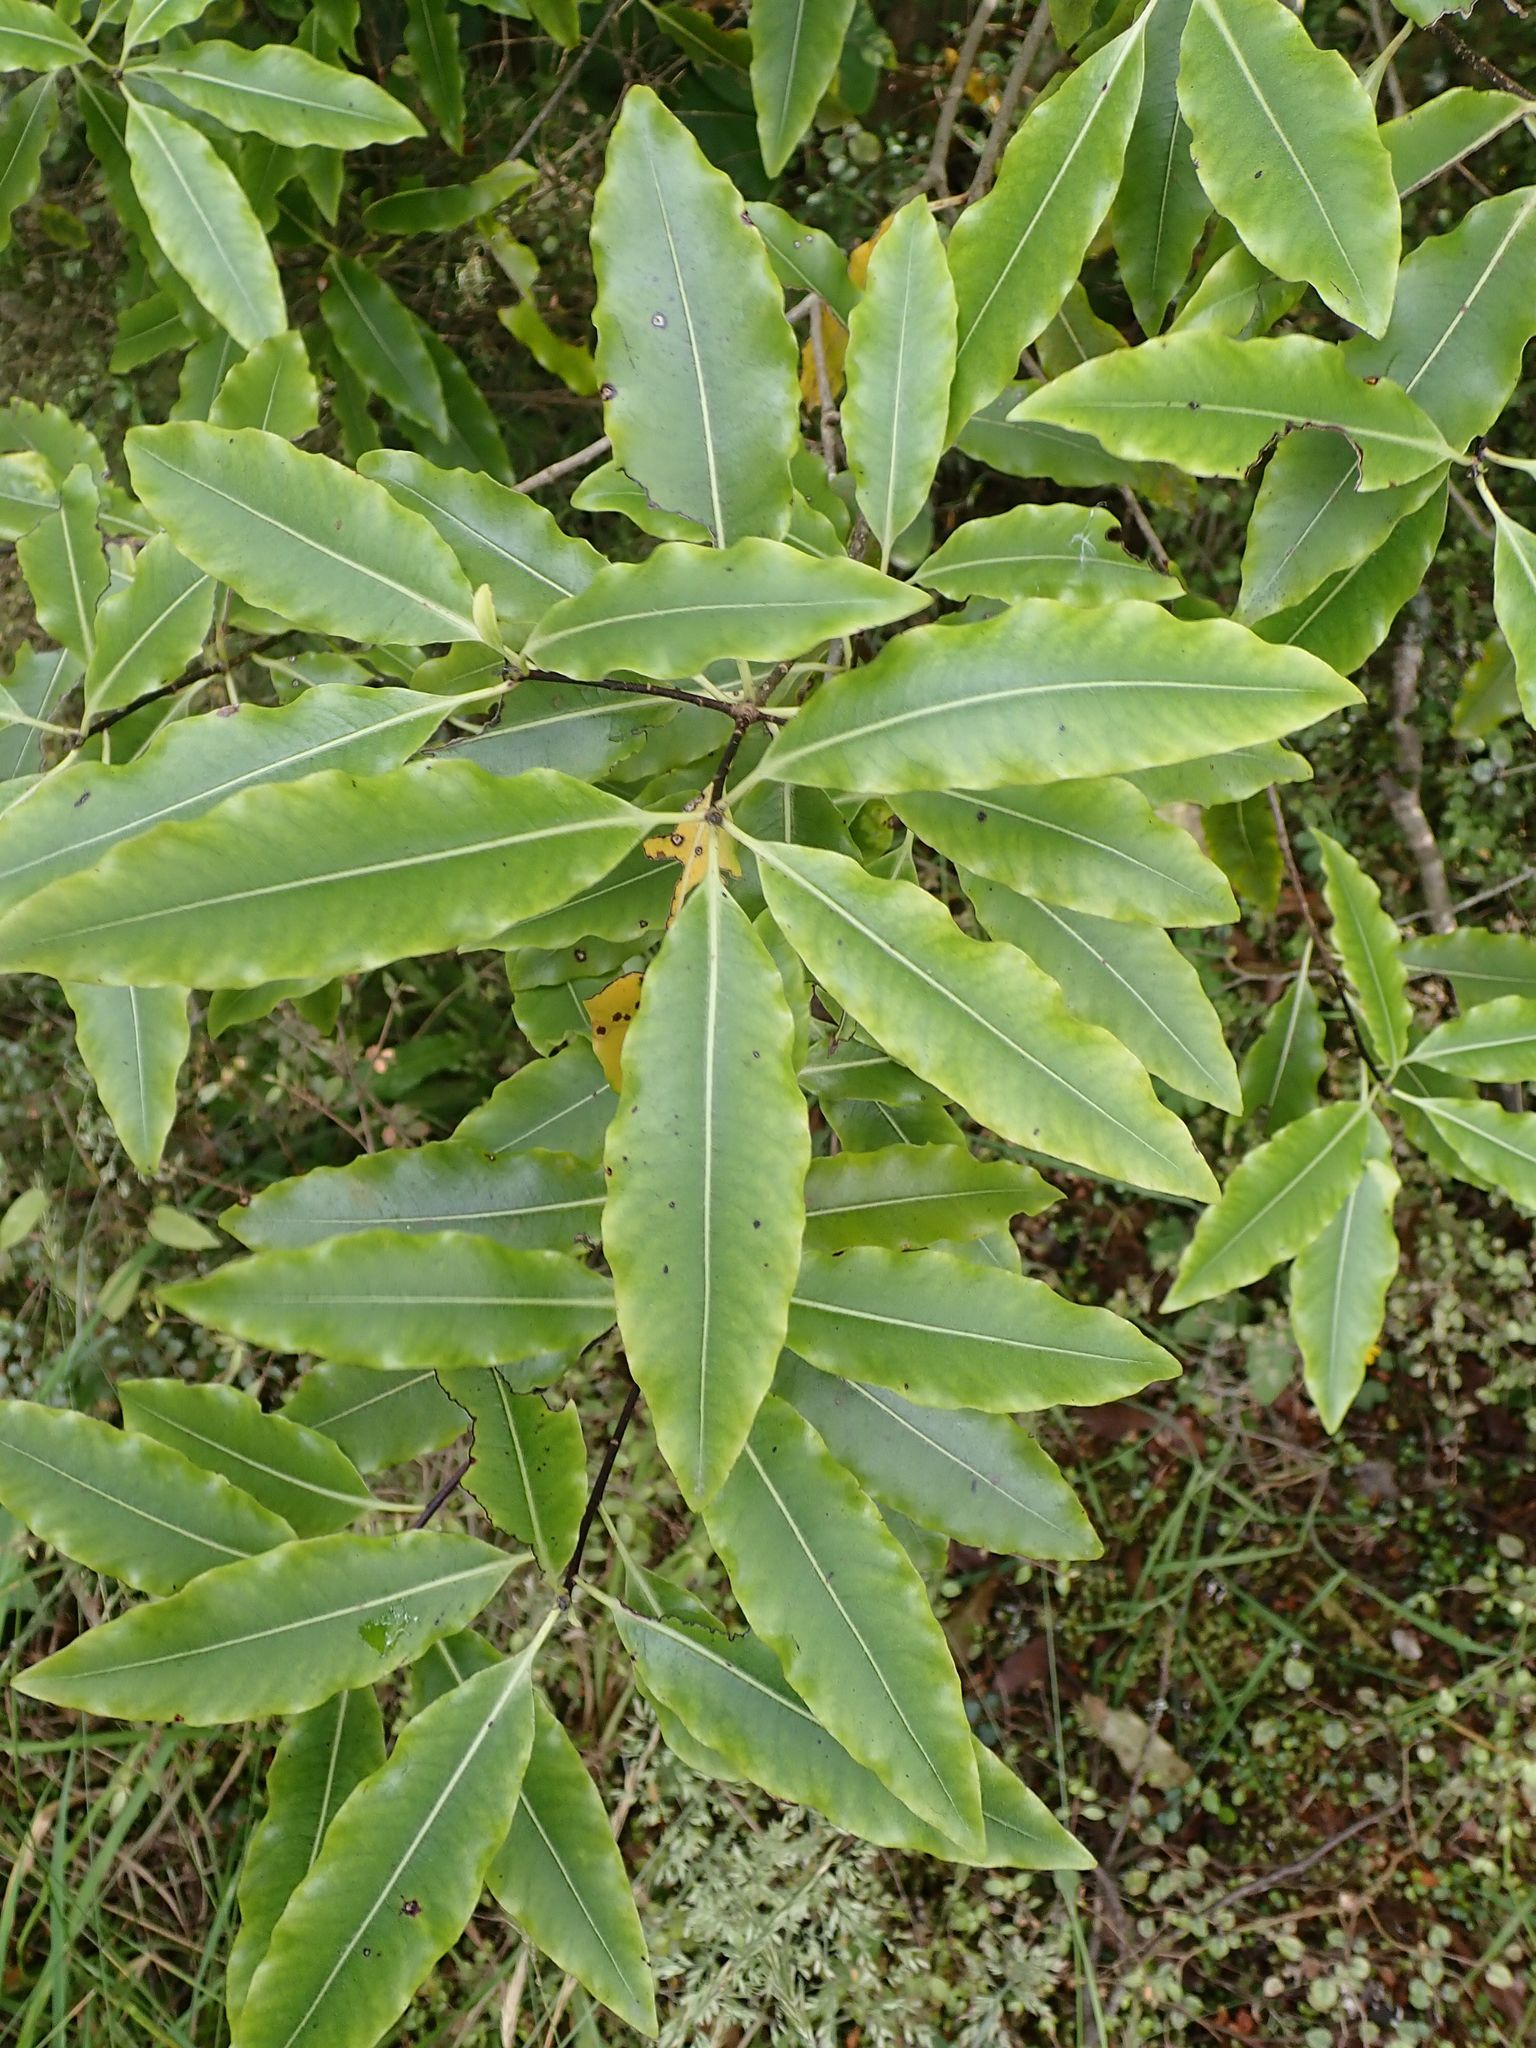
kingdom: Plantae
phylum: Tracheophyta
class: Magnoliopsida
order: Apiales
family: Pittosporaceae
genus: Pittosporum
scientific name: Pittosporum eugenioides
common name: Lemonwood
